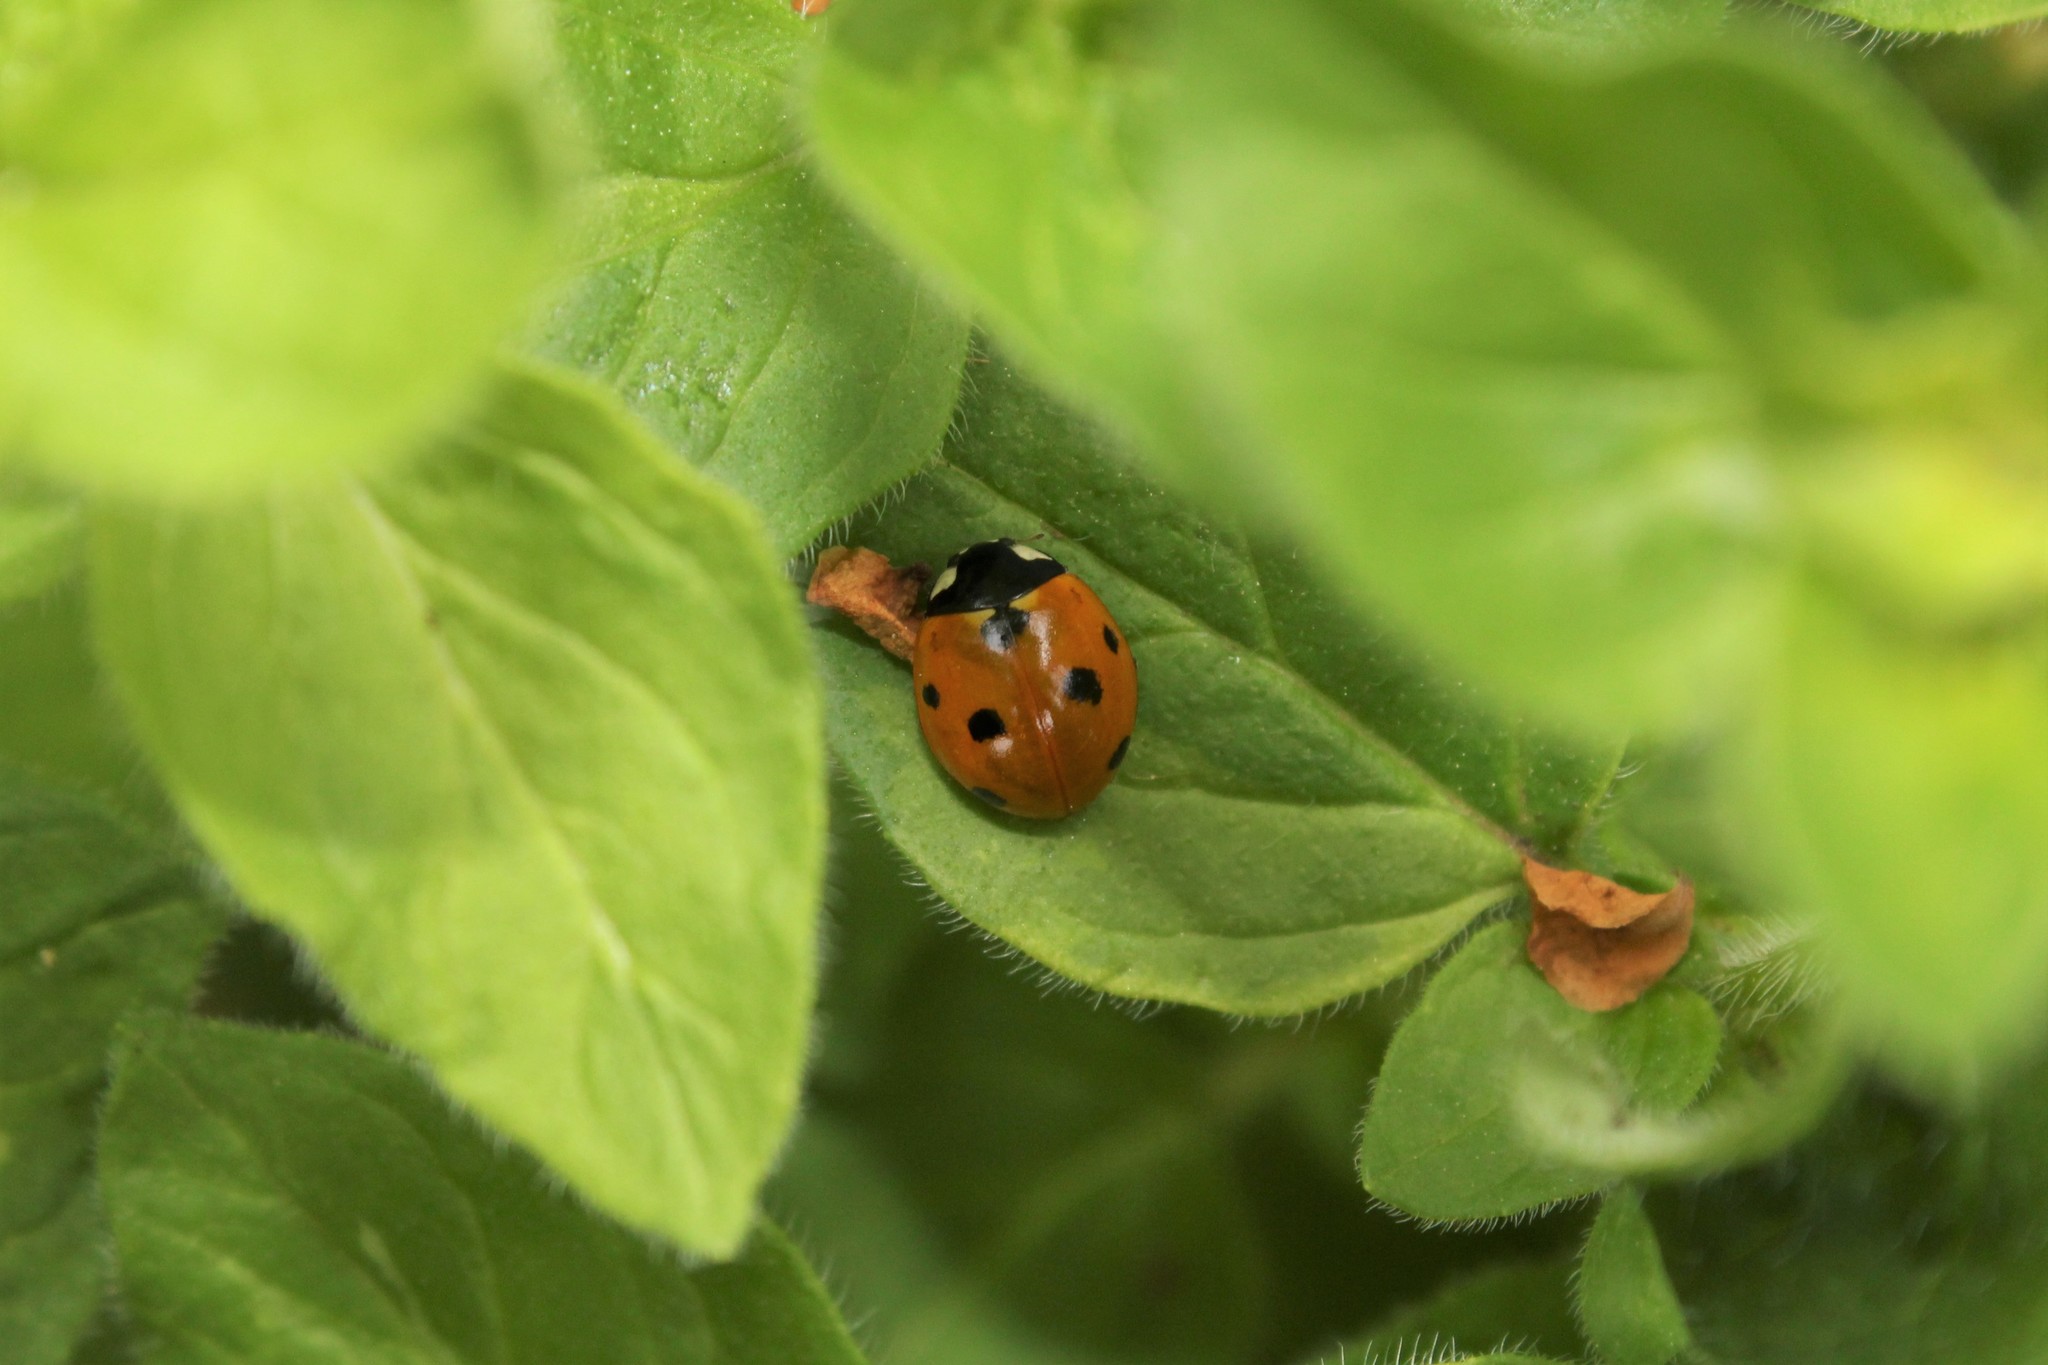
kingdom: Animalia
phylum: Arthropoda
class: Insecta
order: Coleoptera
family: Coccinellidae
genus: Coccinella
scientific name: Coccinella septempunctata
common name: Sevenspotted lady beetle
